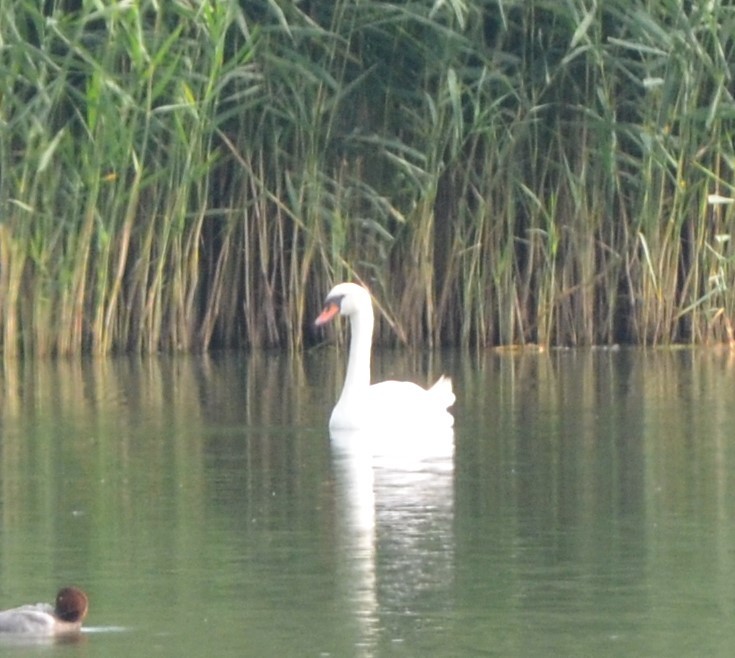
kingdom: Animalia
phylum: Chordata
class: Aves
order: Anseriformes
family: Anatidae
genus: Cygnus
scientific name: Cygnus olor
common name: Mute swan
